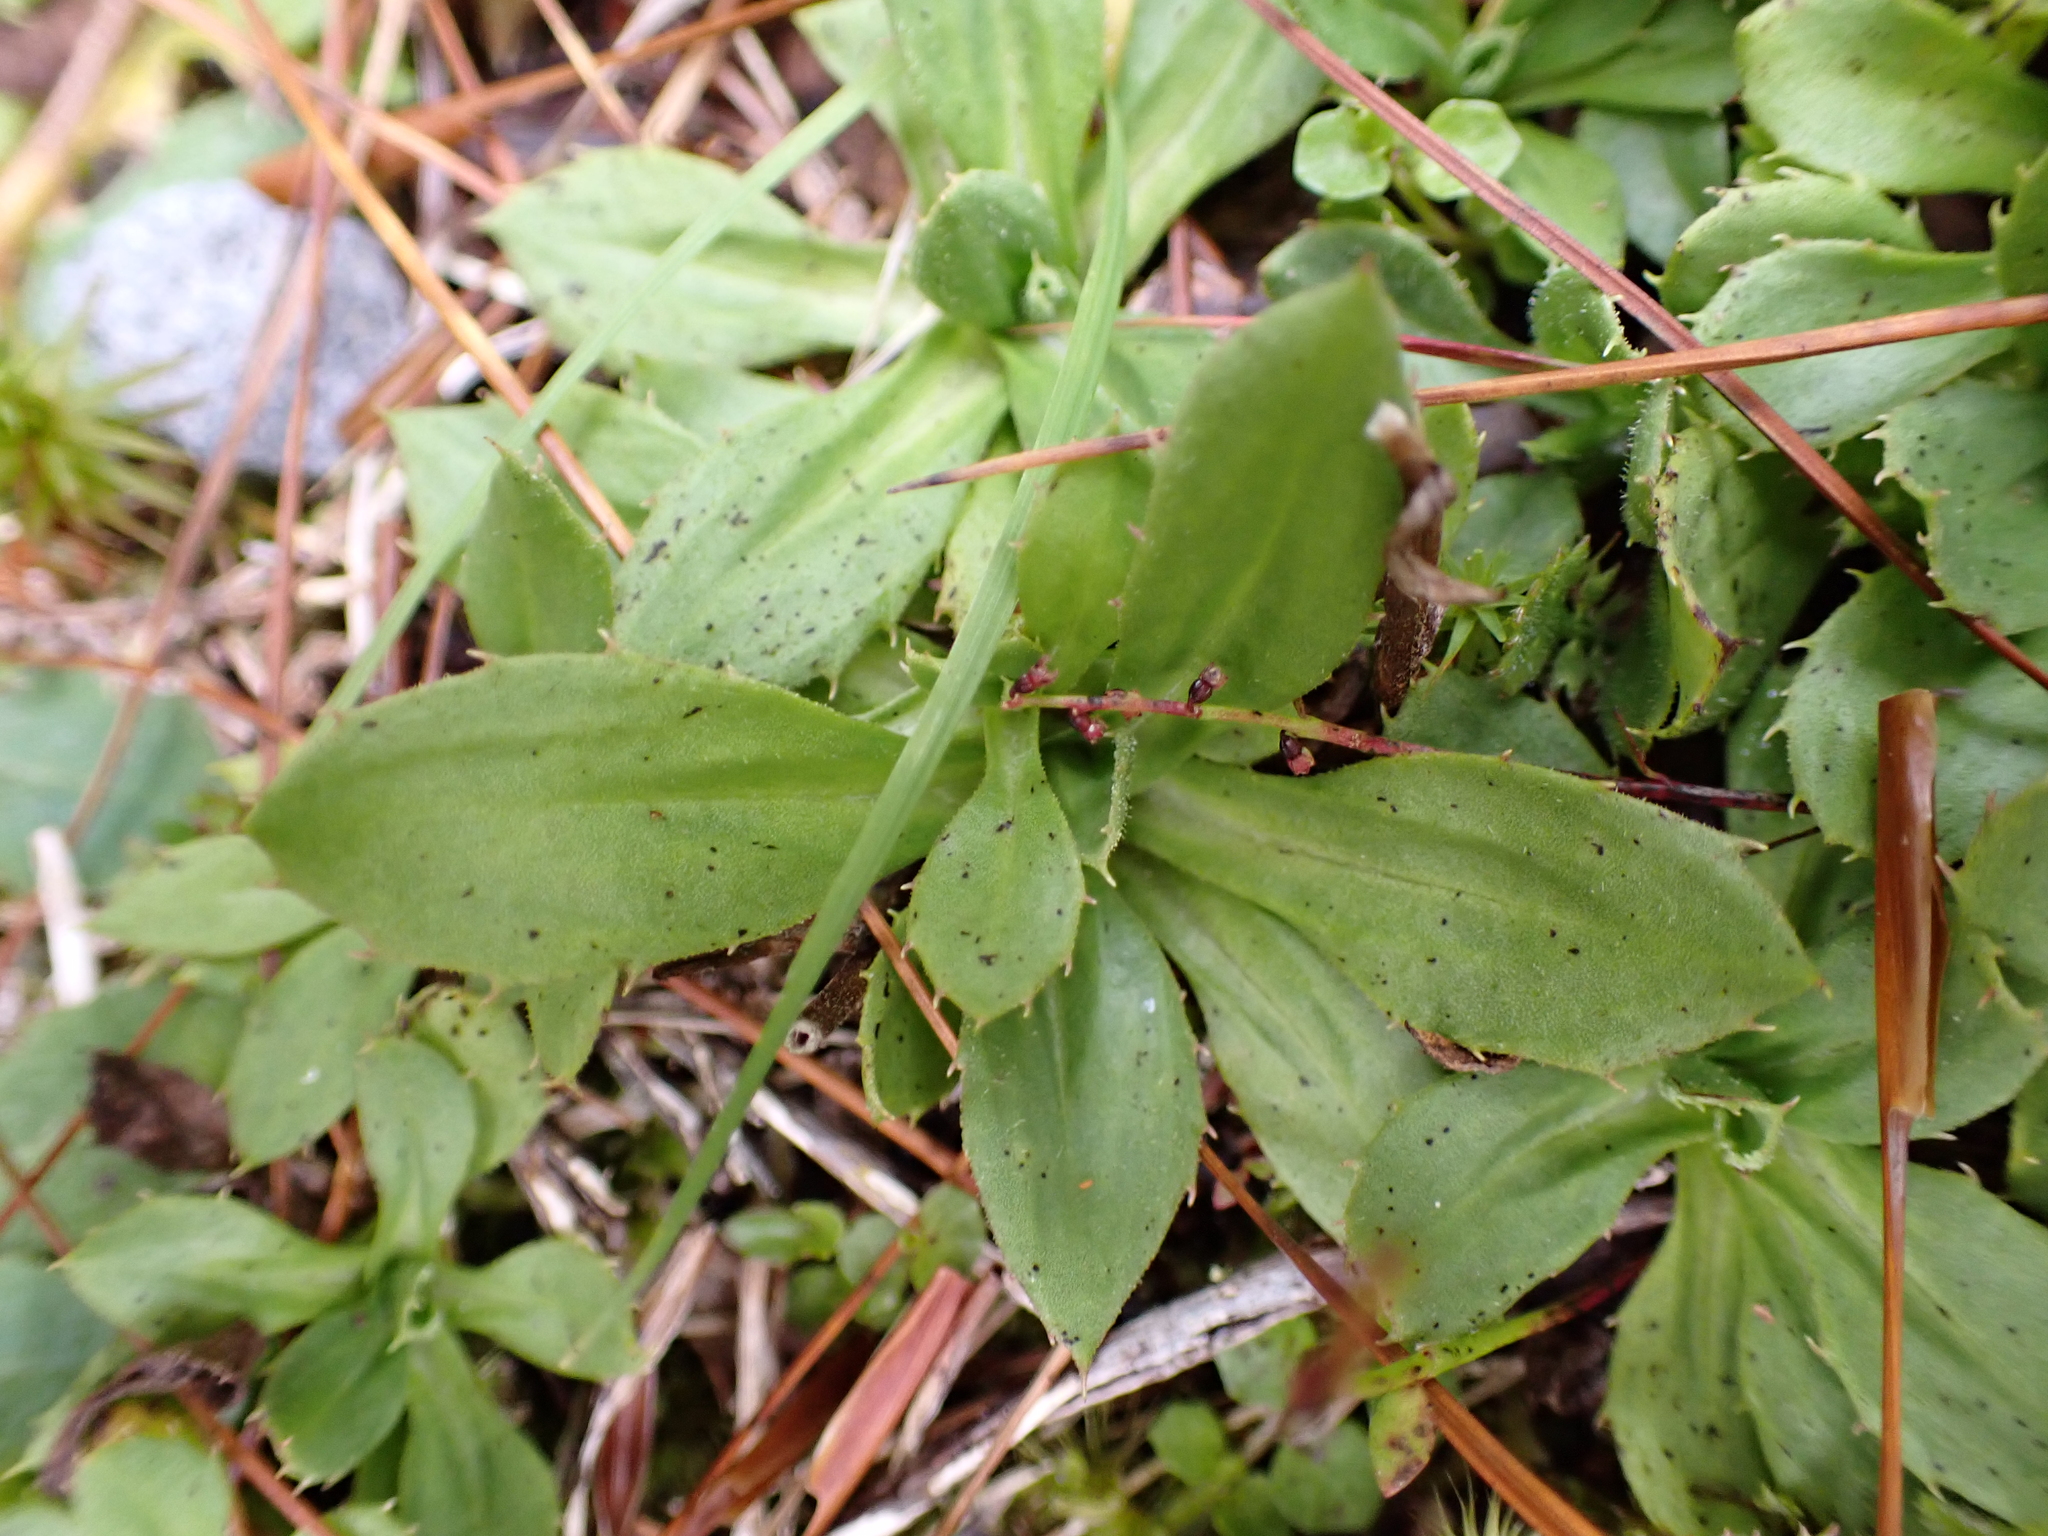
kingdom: Plantae
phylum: Tracheophyta
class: Magnoliopsida
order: Asterales
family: Asteraceae
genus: Celmisia
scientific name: Celmisia glandulosa
